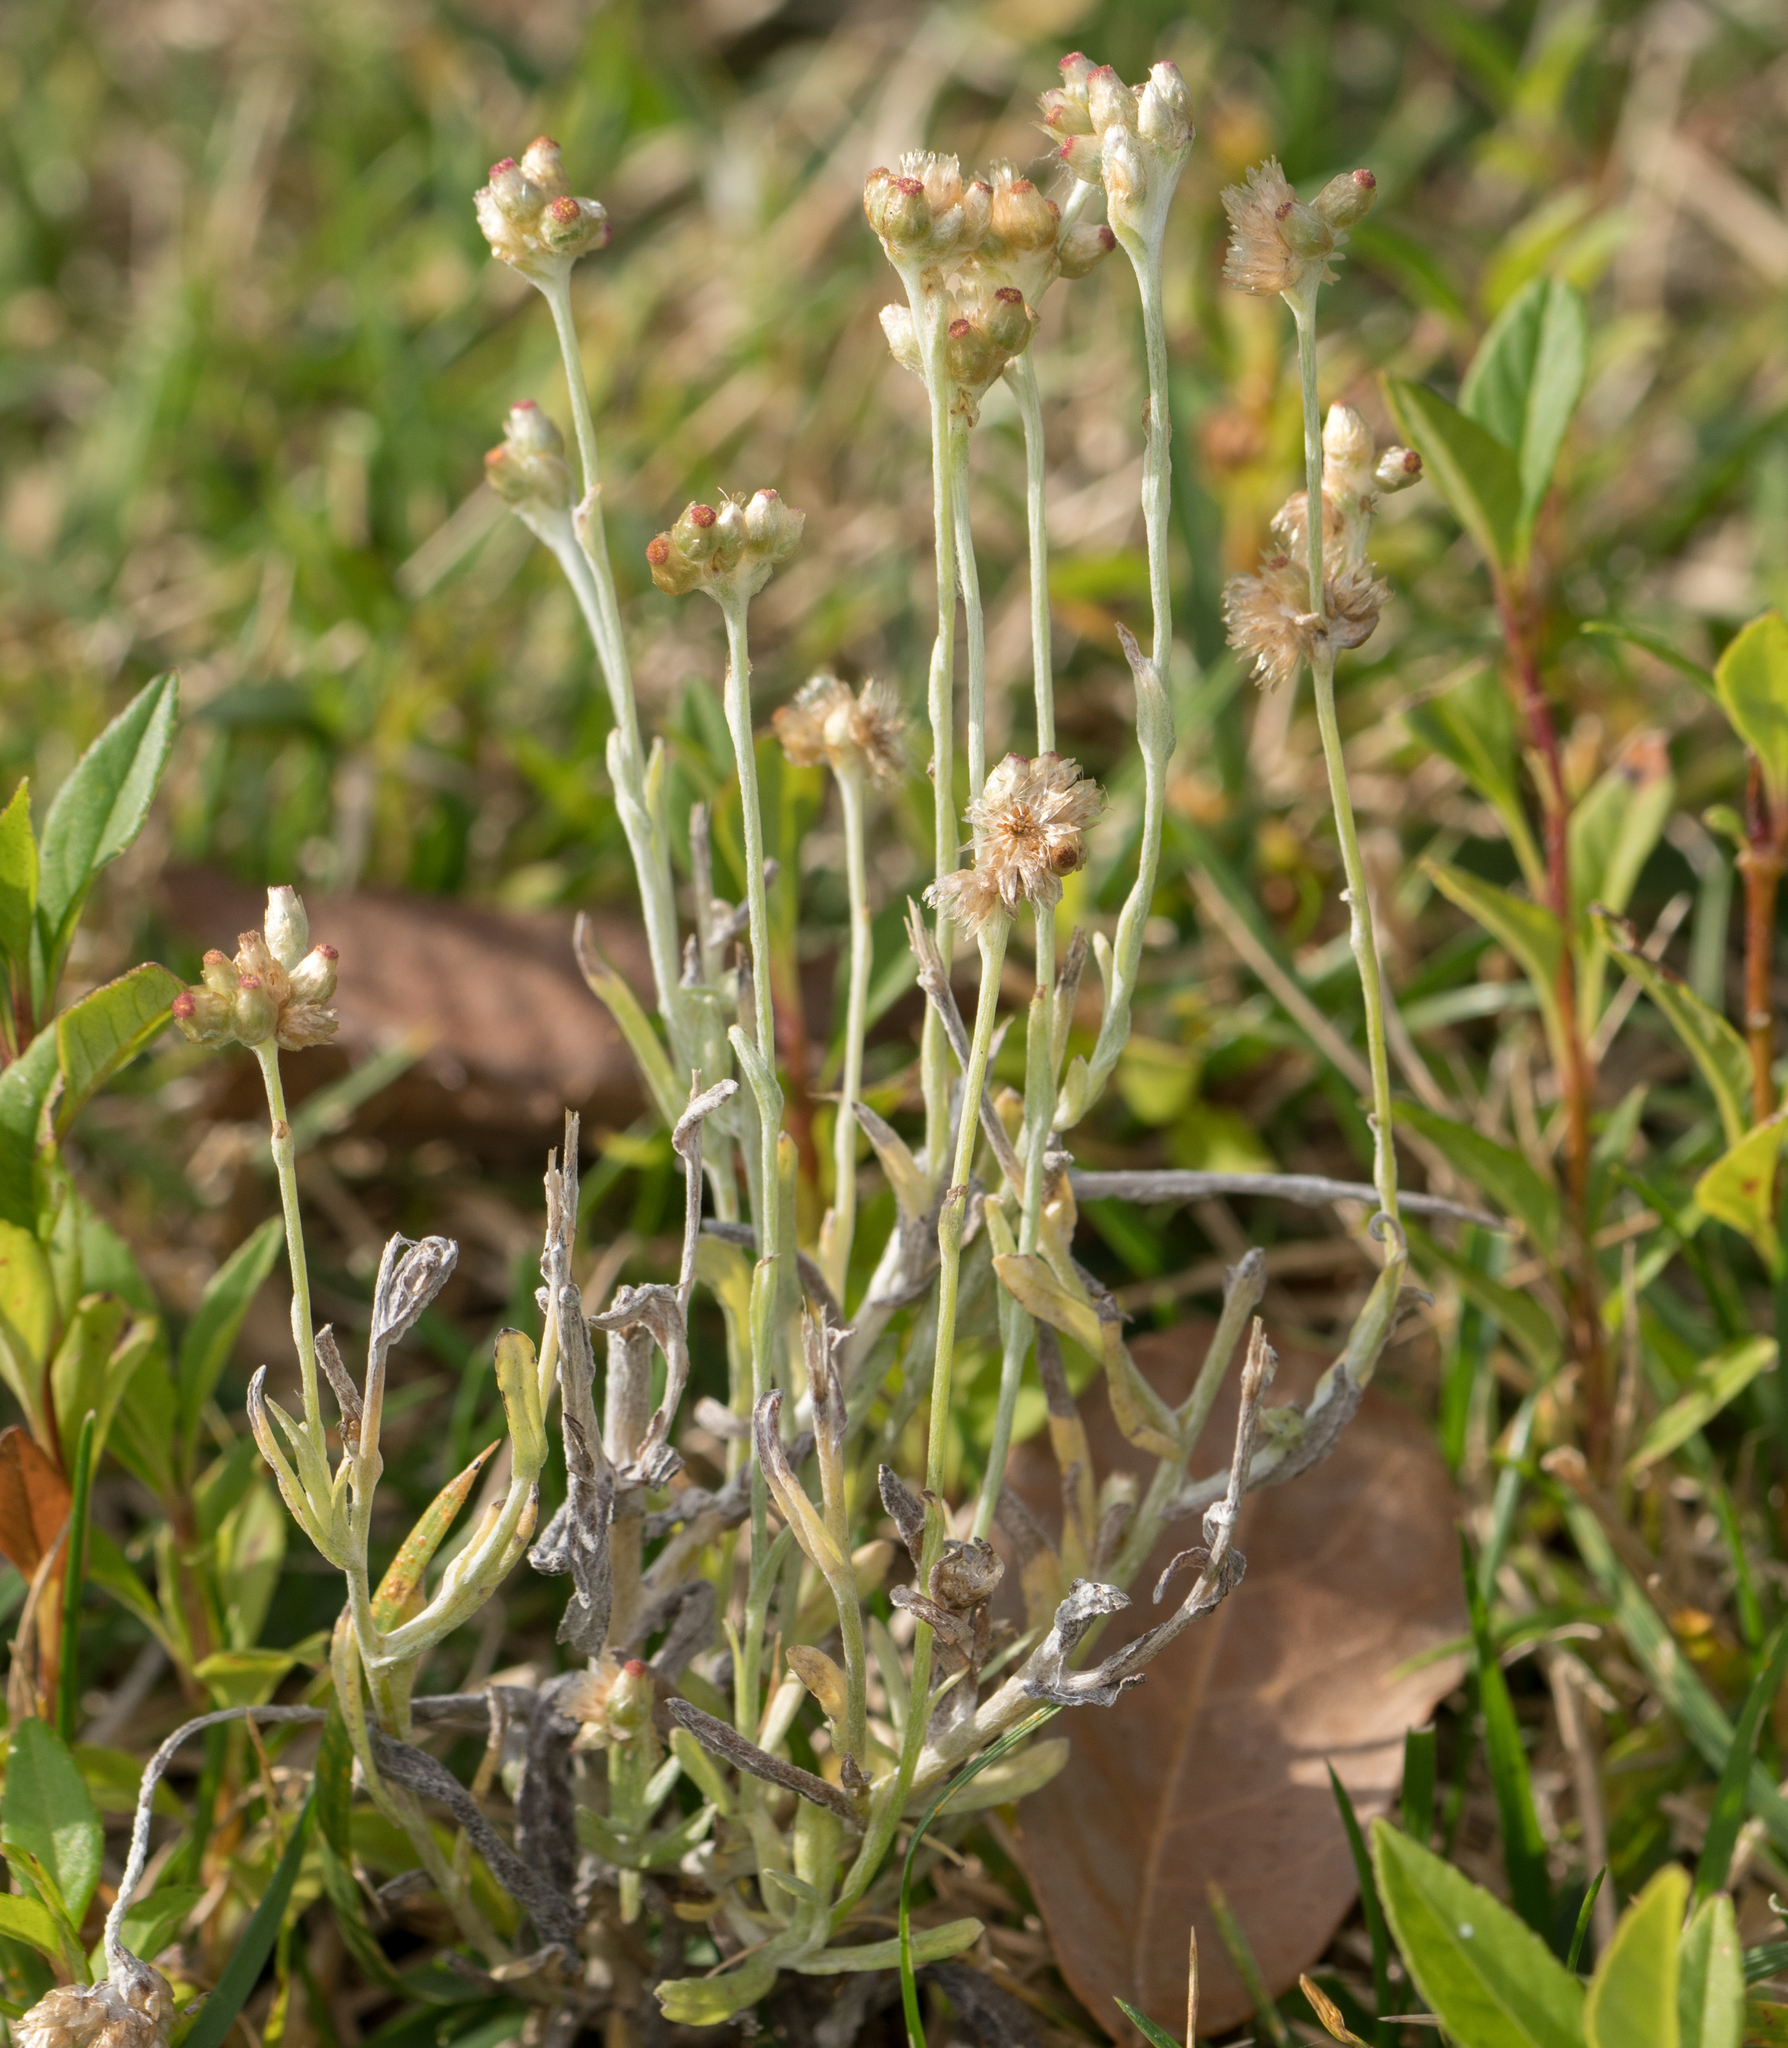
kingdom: Plantae
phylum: Tracheophyta
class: Magnoliopsida
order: Asterales
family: Asteraceae
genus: Helichrysum
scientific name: Helichrysum luteoalbum
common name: Daisy
